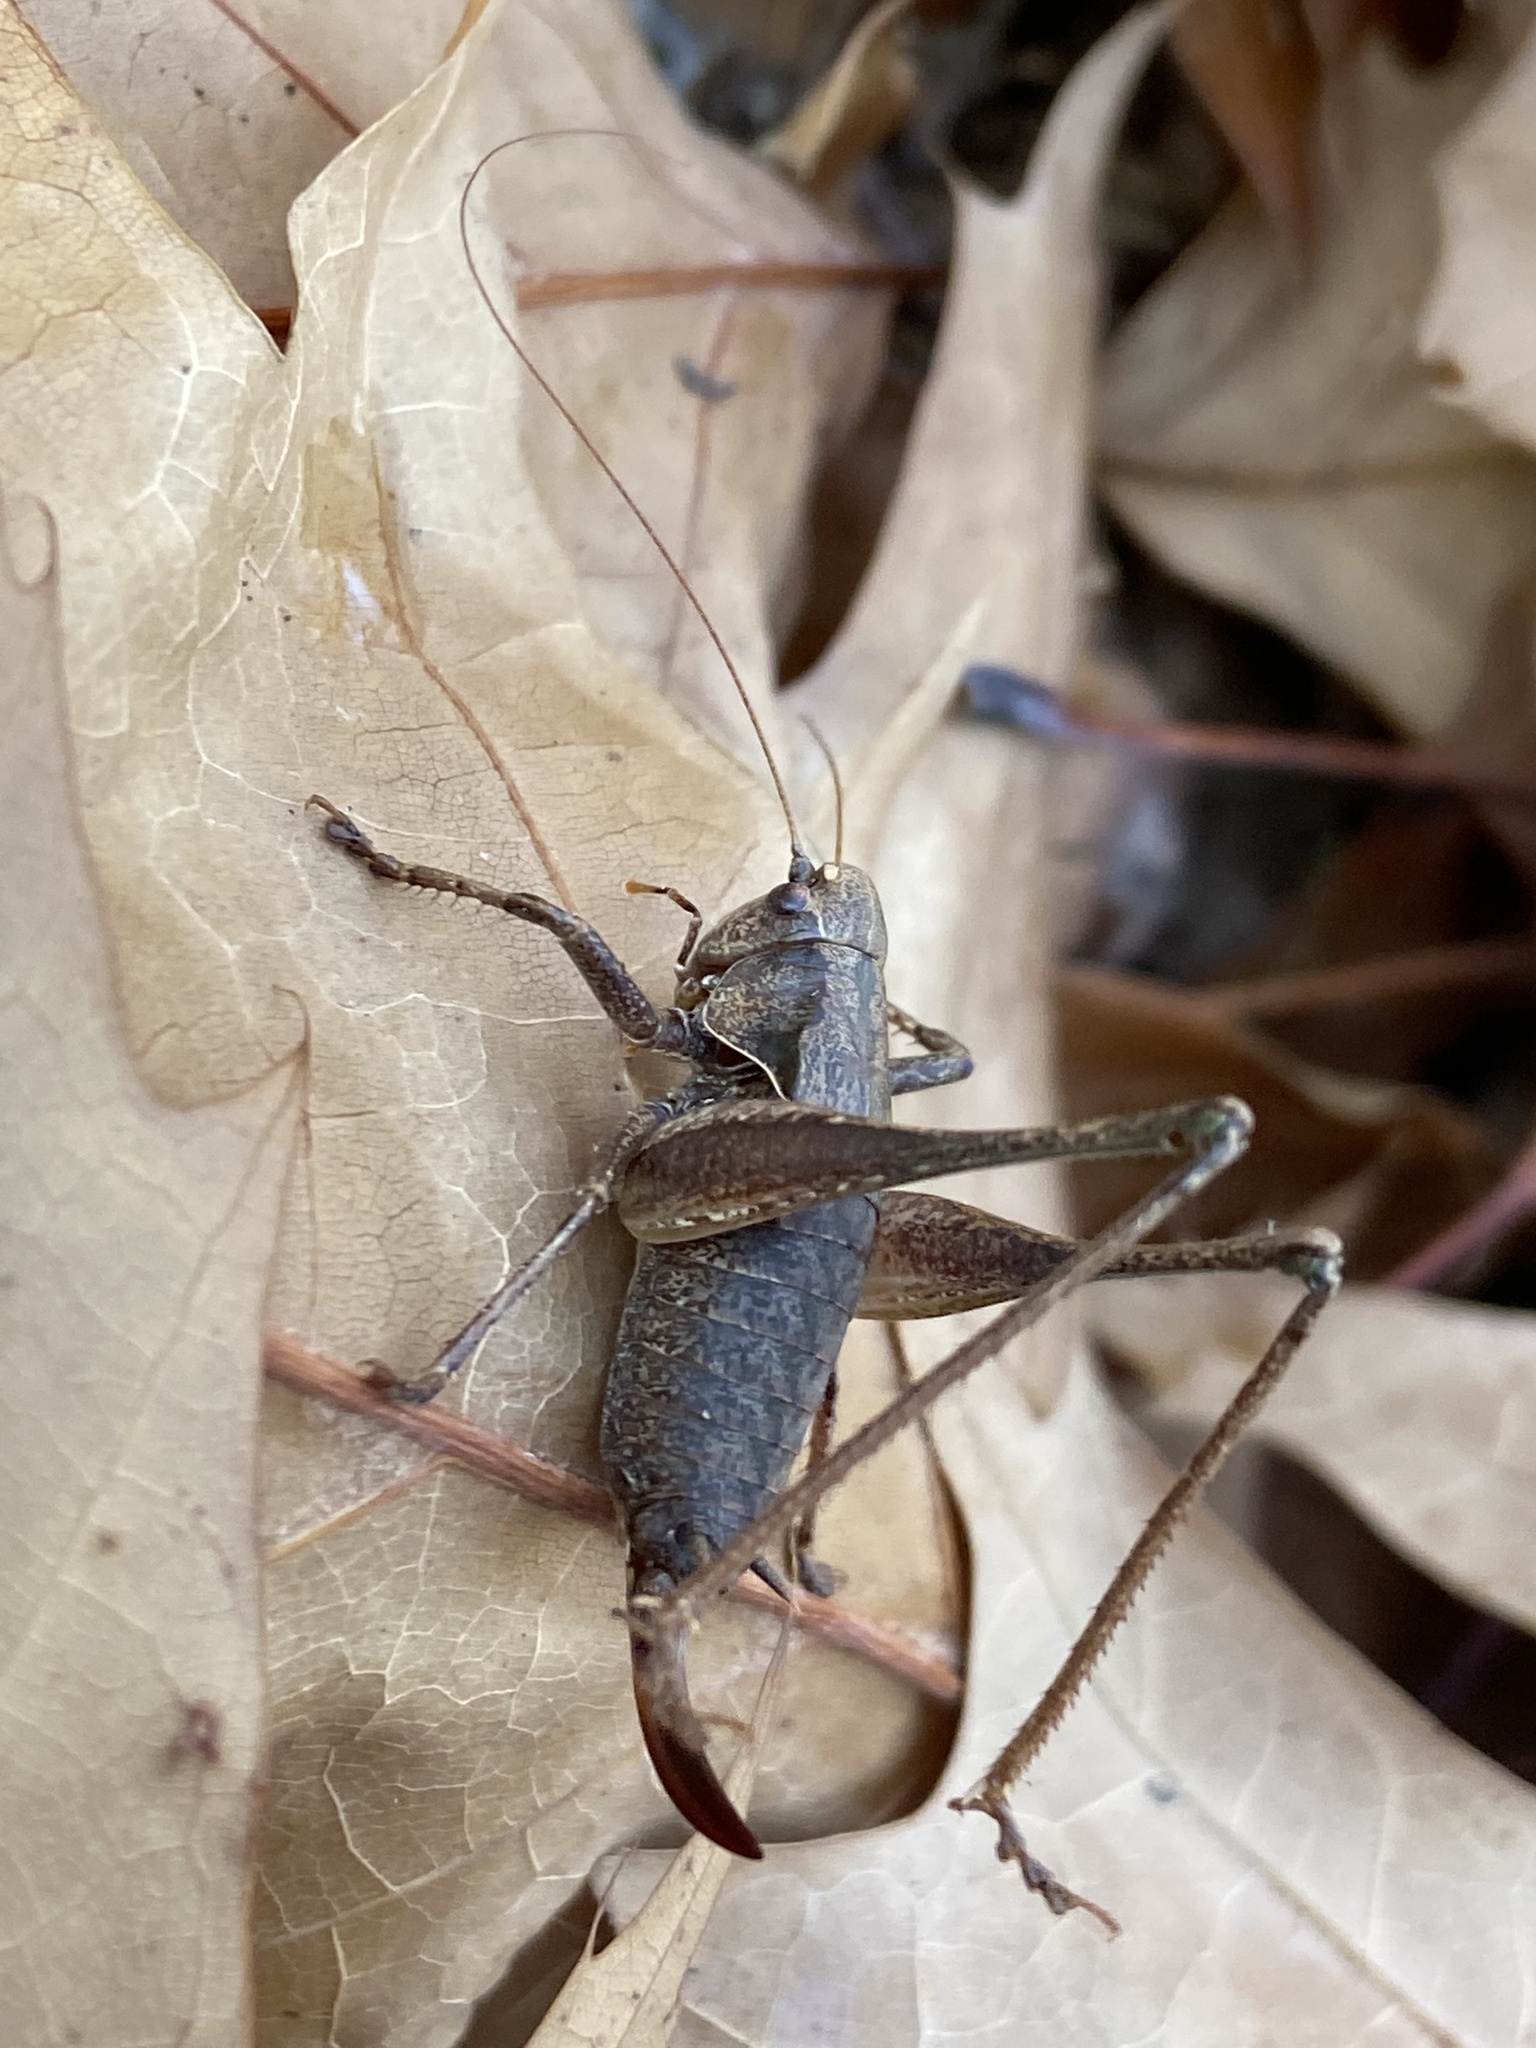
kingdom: Animalia
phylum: Arthropoda
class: Insecta
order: Orthoptera
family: Tettigoniidae
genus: Pholidoptera
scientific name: Pholidoptera griseoaptera
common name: Dark bush-cricket
